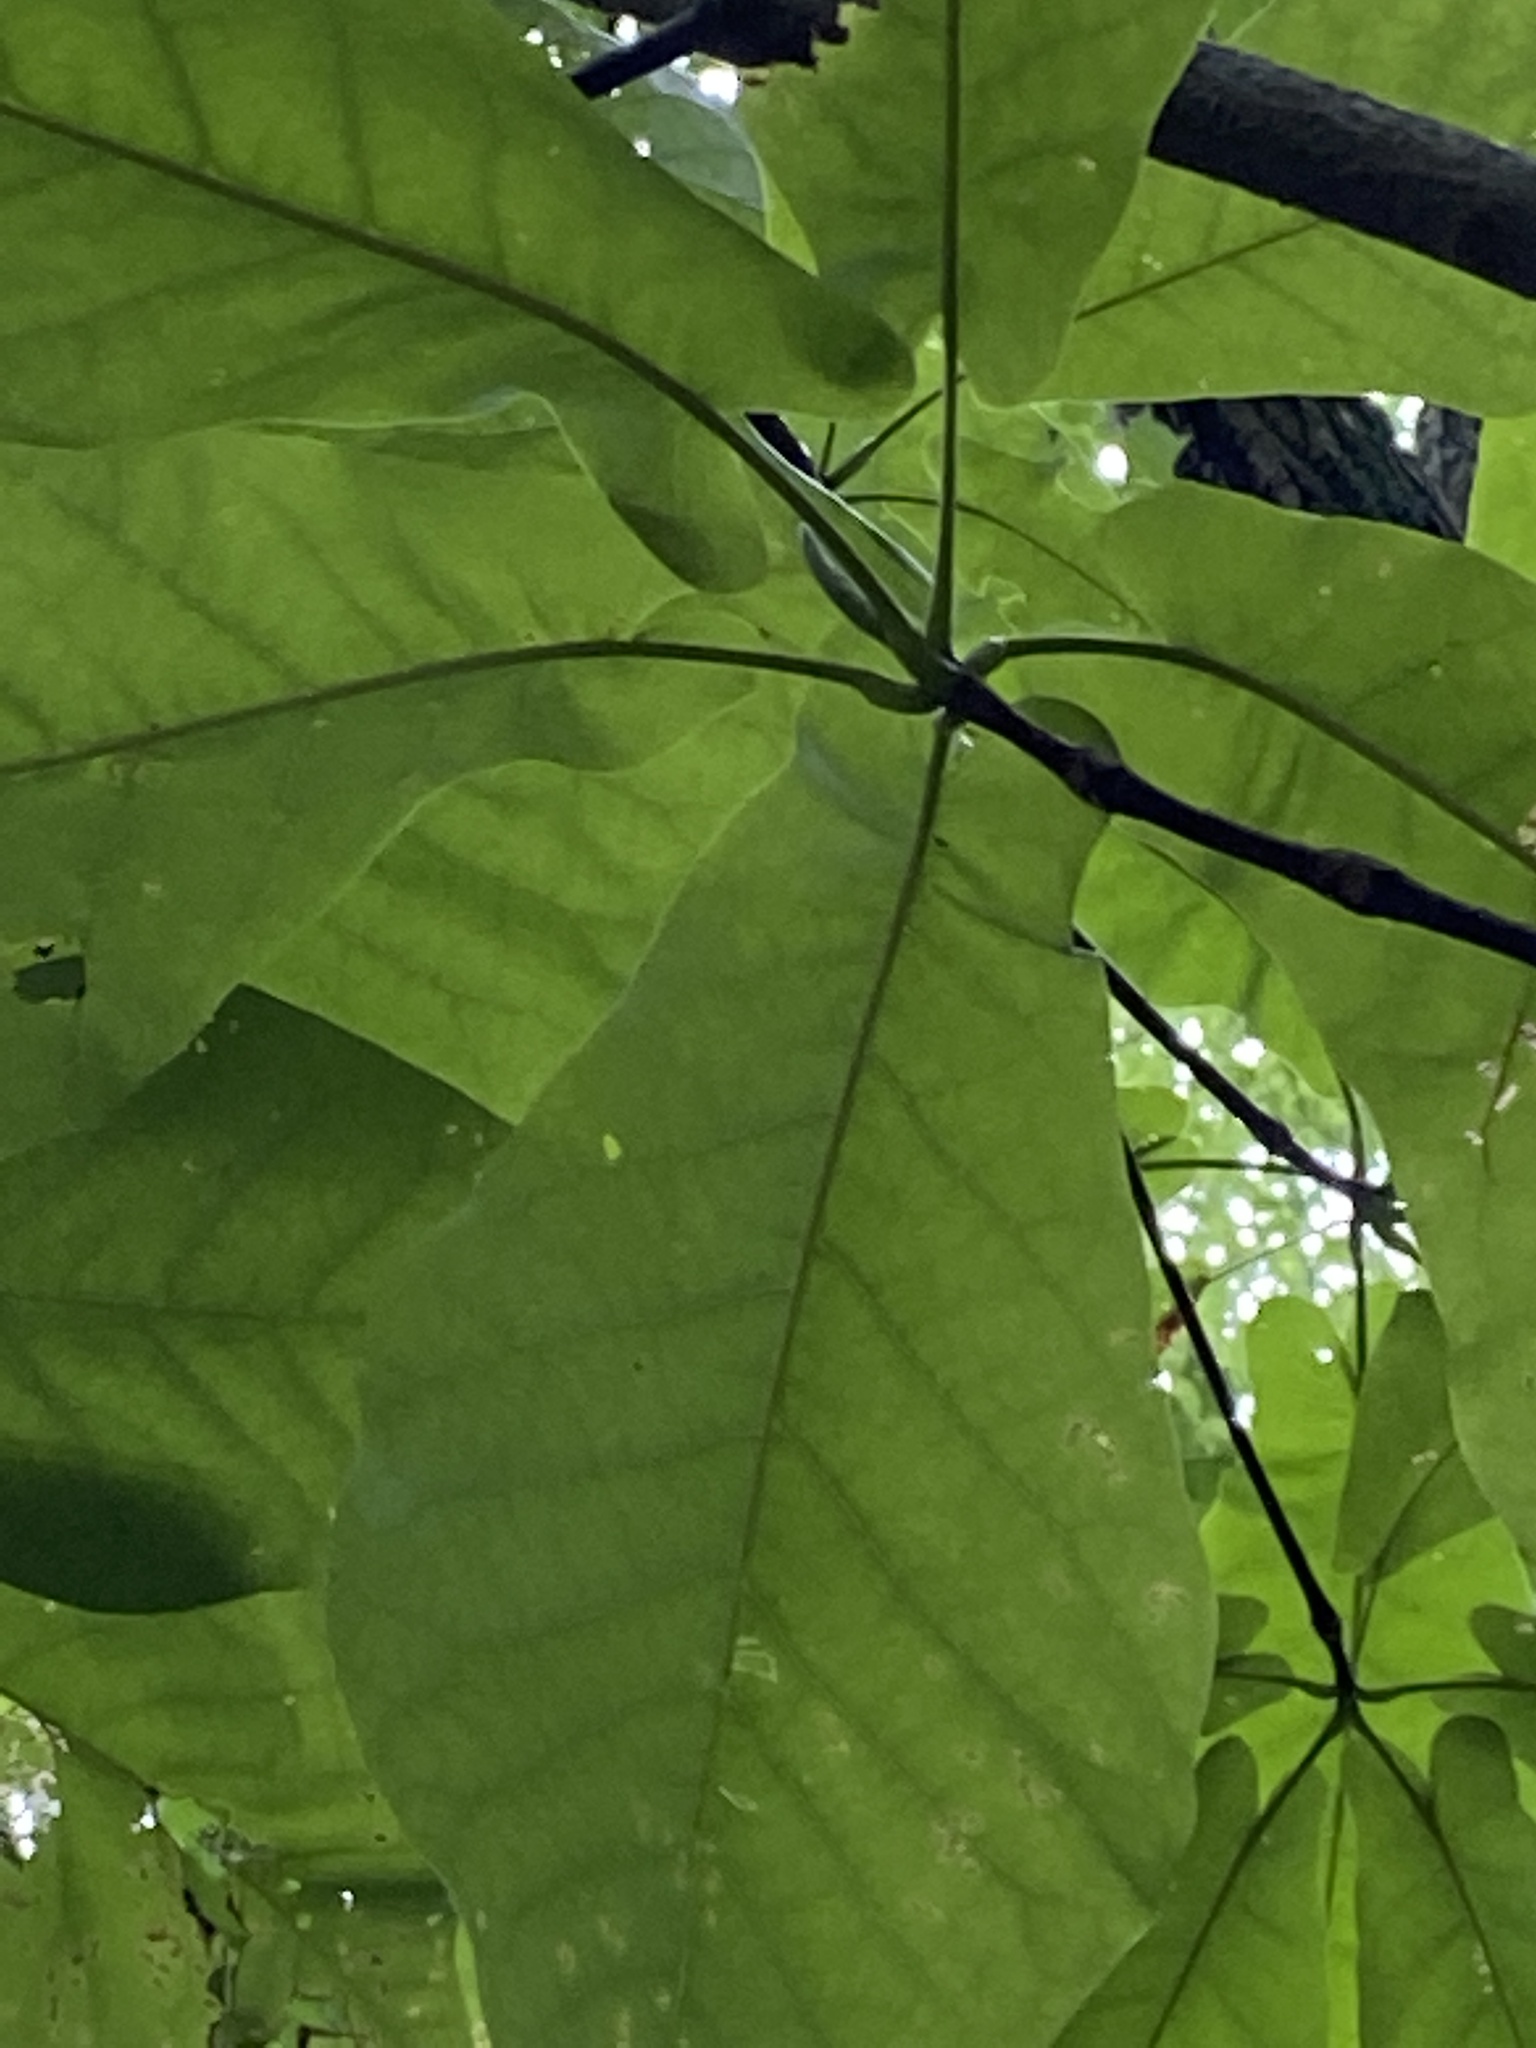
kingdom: Plantae
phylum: Tracheophyta
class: Magnoliopsida
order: Magnoliales
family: Magnoliaceae
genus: Magnolia
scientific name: Magnolia fraseri
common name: Fraser's magnolia
